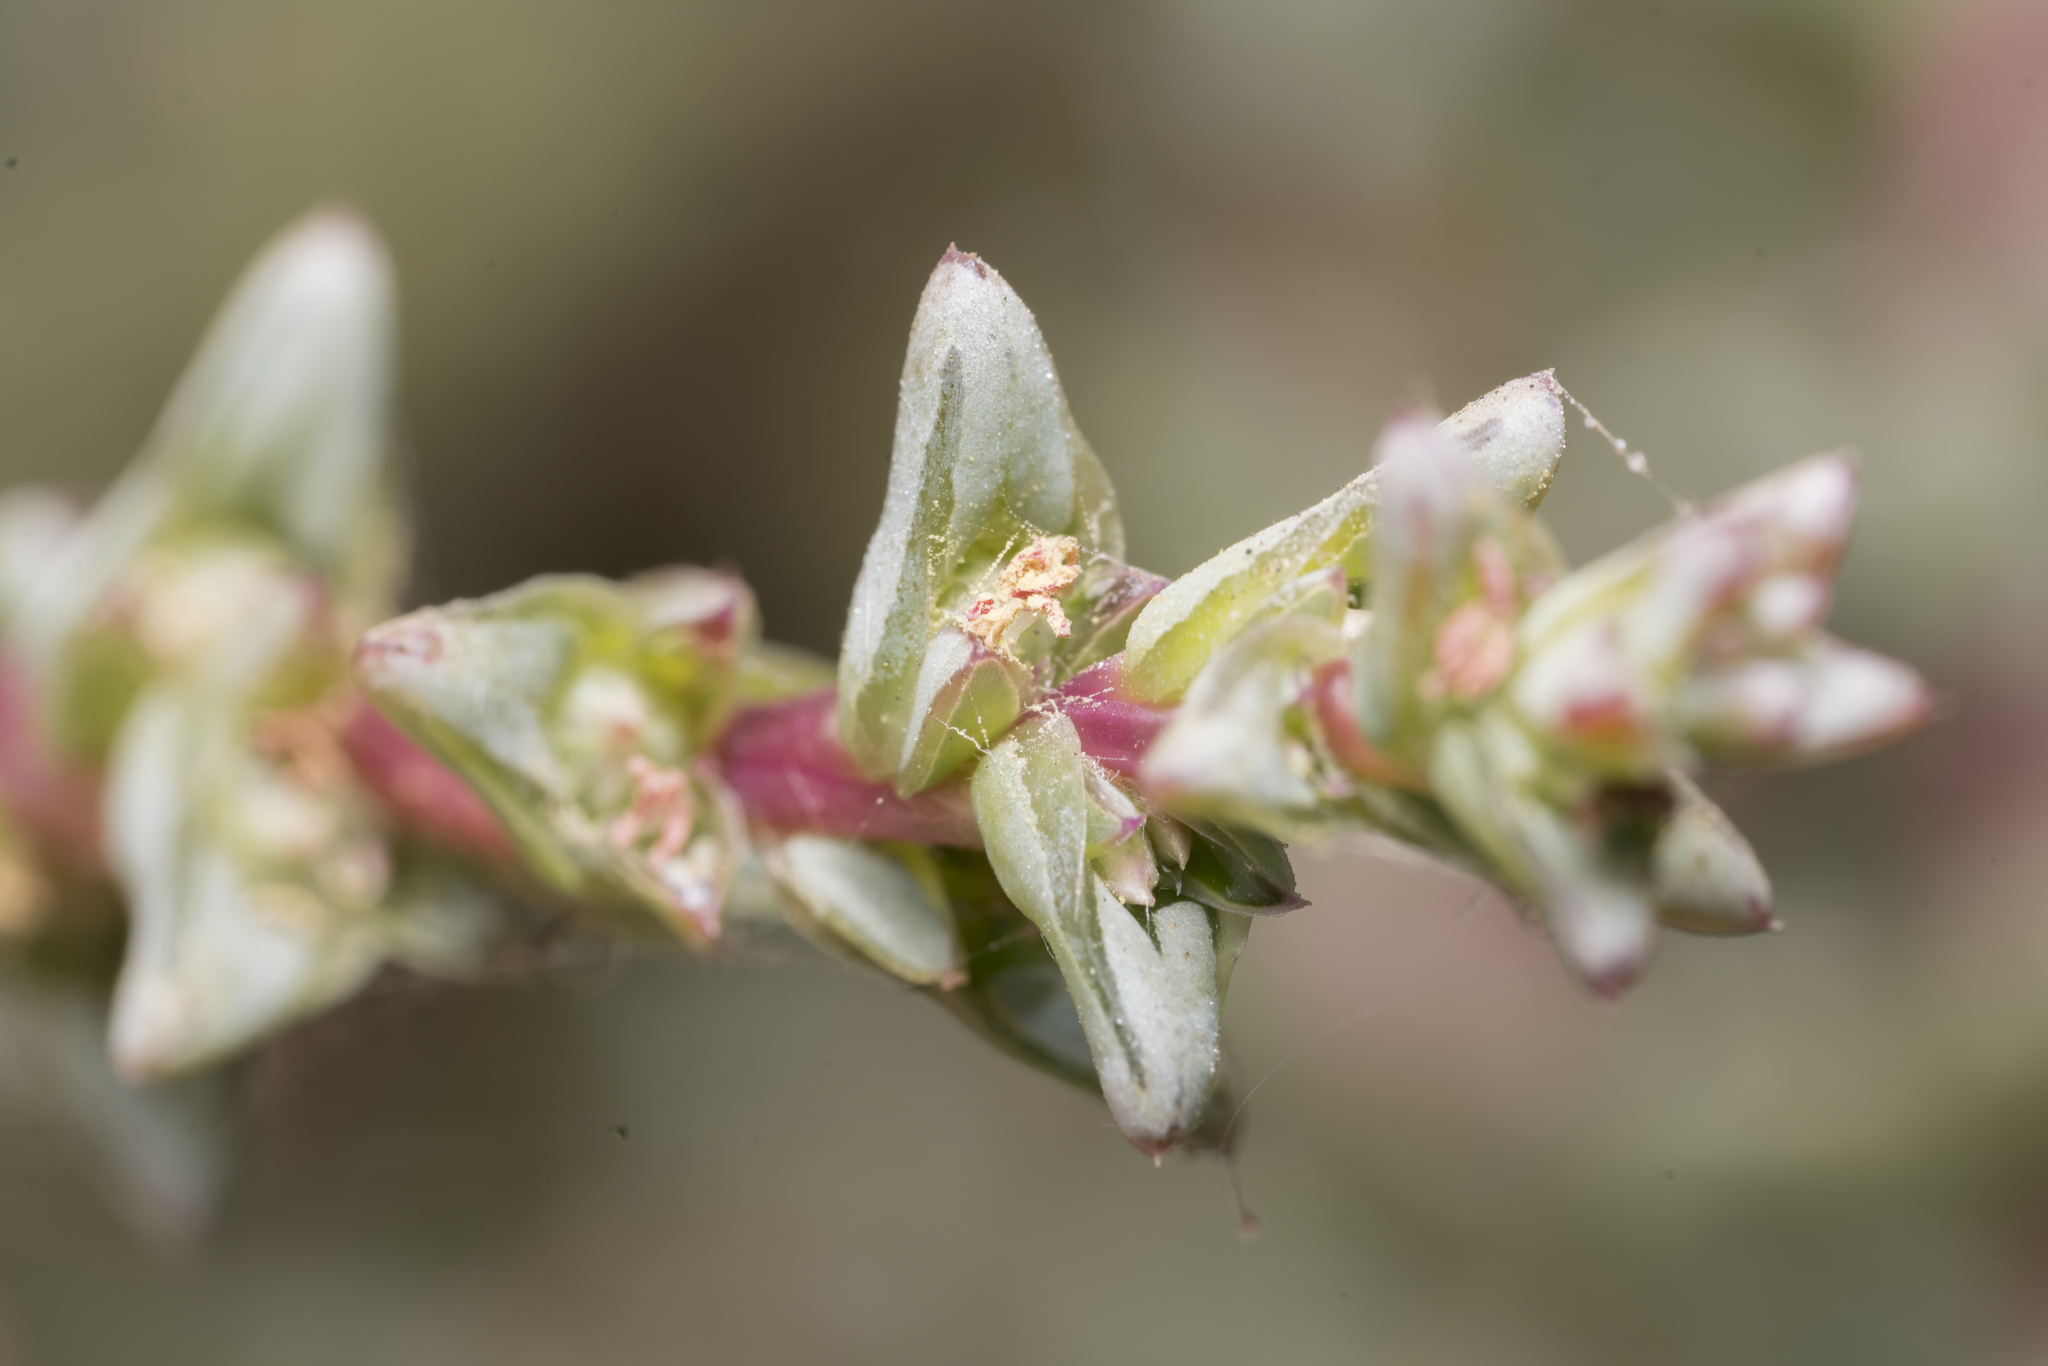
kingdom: Plantae
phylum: Tracheophyta
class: Magnoliopsida
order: Caryophyllales
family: Amaranthaceae
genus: Salsola
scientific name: Salsola soda
